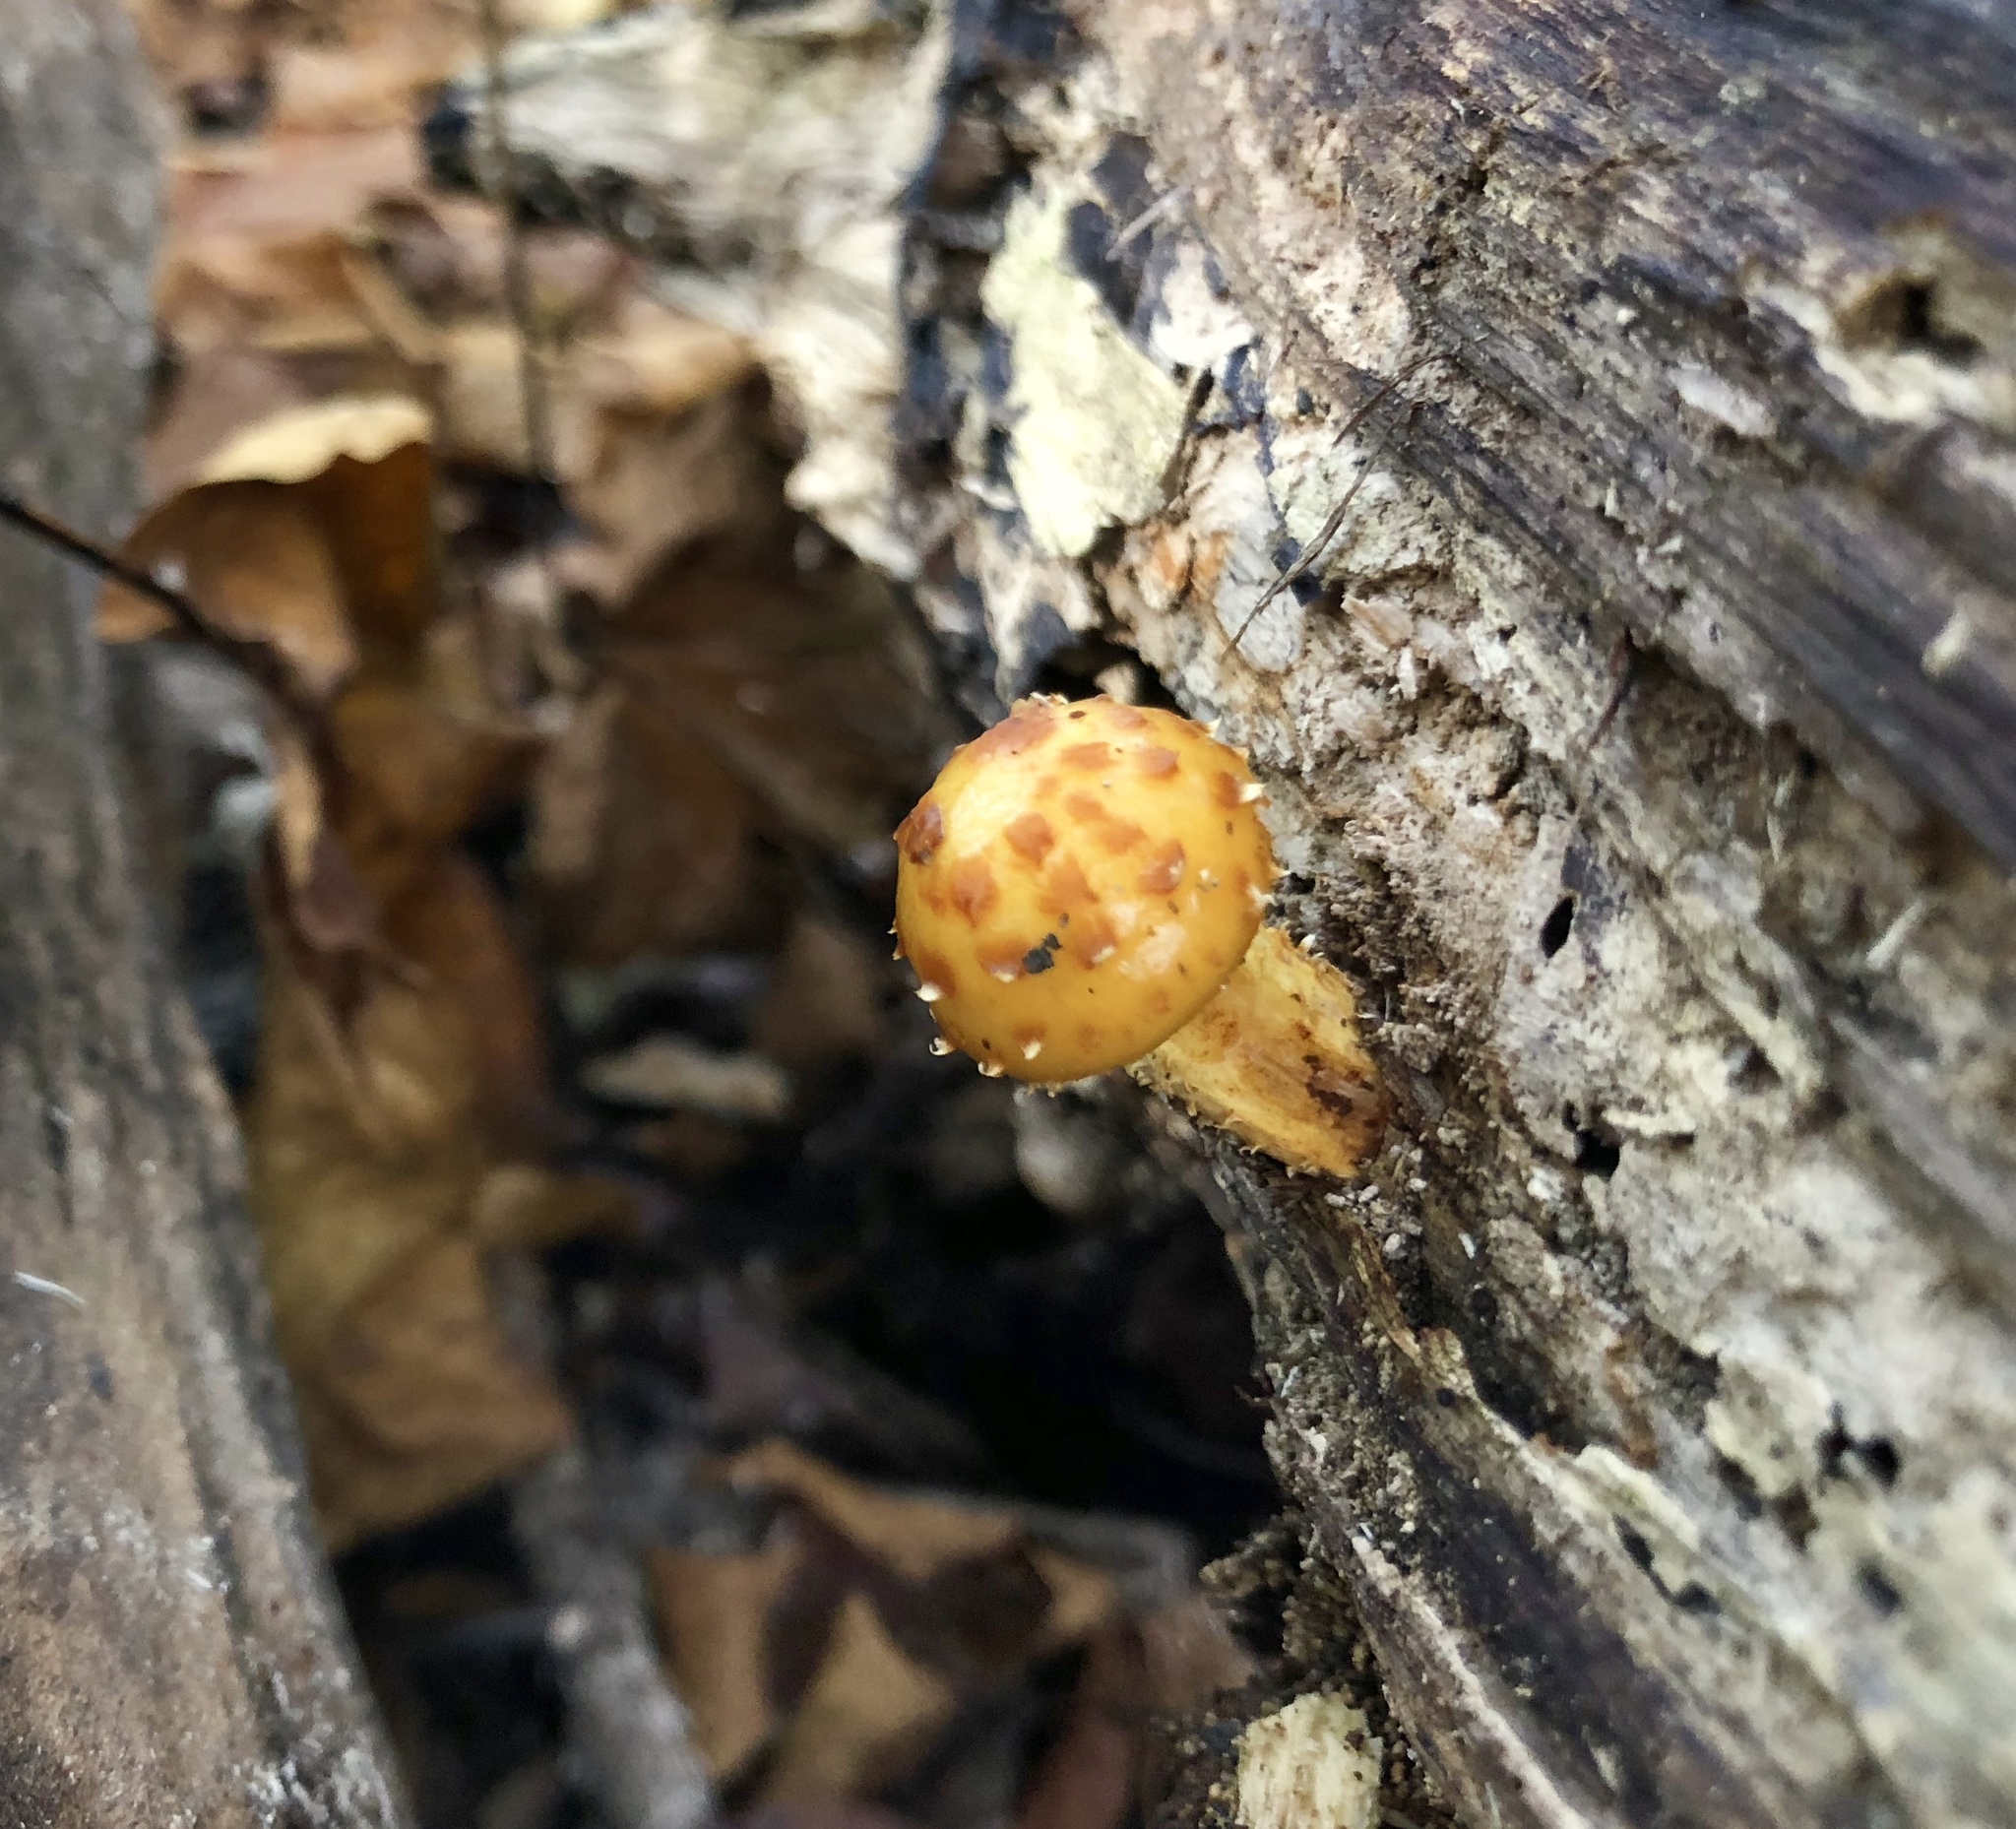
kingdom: Fungi
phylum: Basidiomycota
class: Agaricomycetes
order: Agaricales
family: Strophariaceae
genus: Pholiota
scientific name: Pholiota aurivella
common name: Golden scalycap
